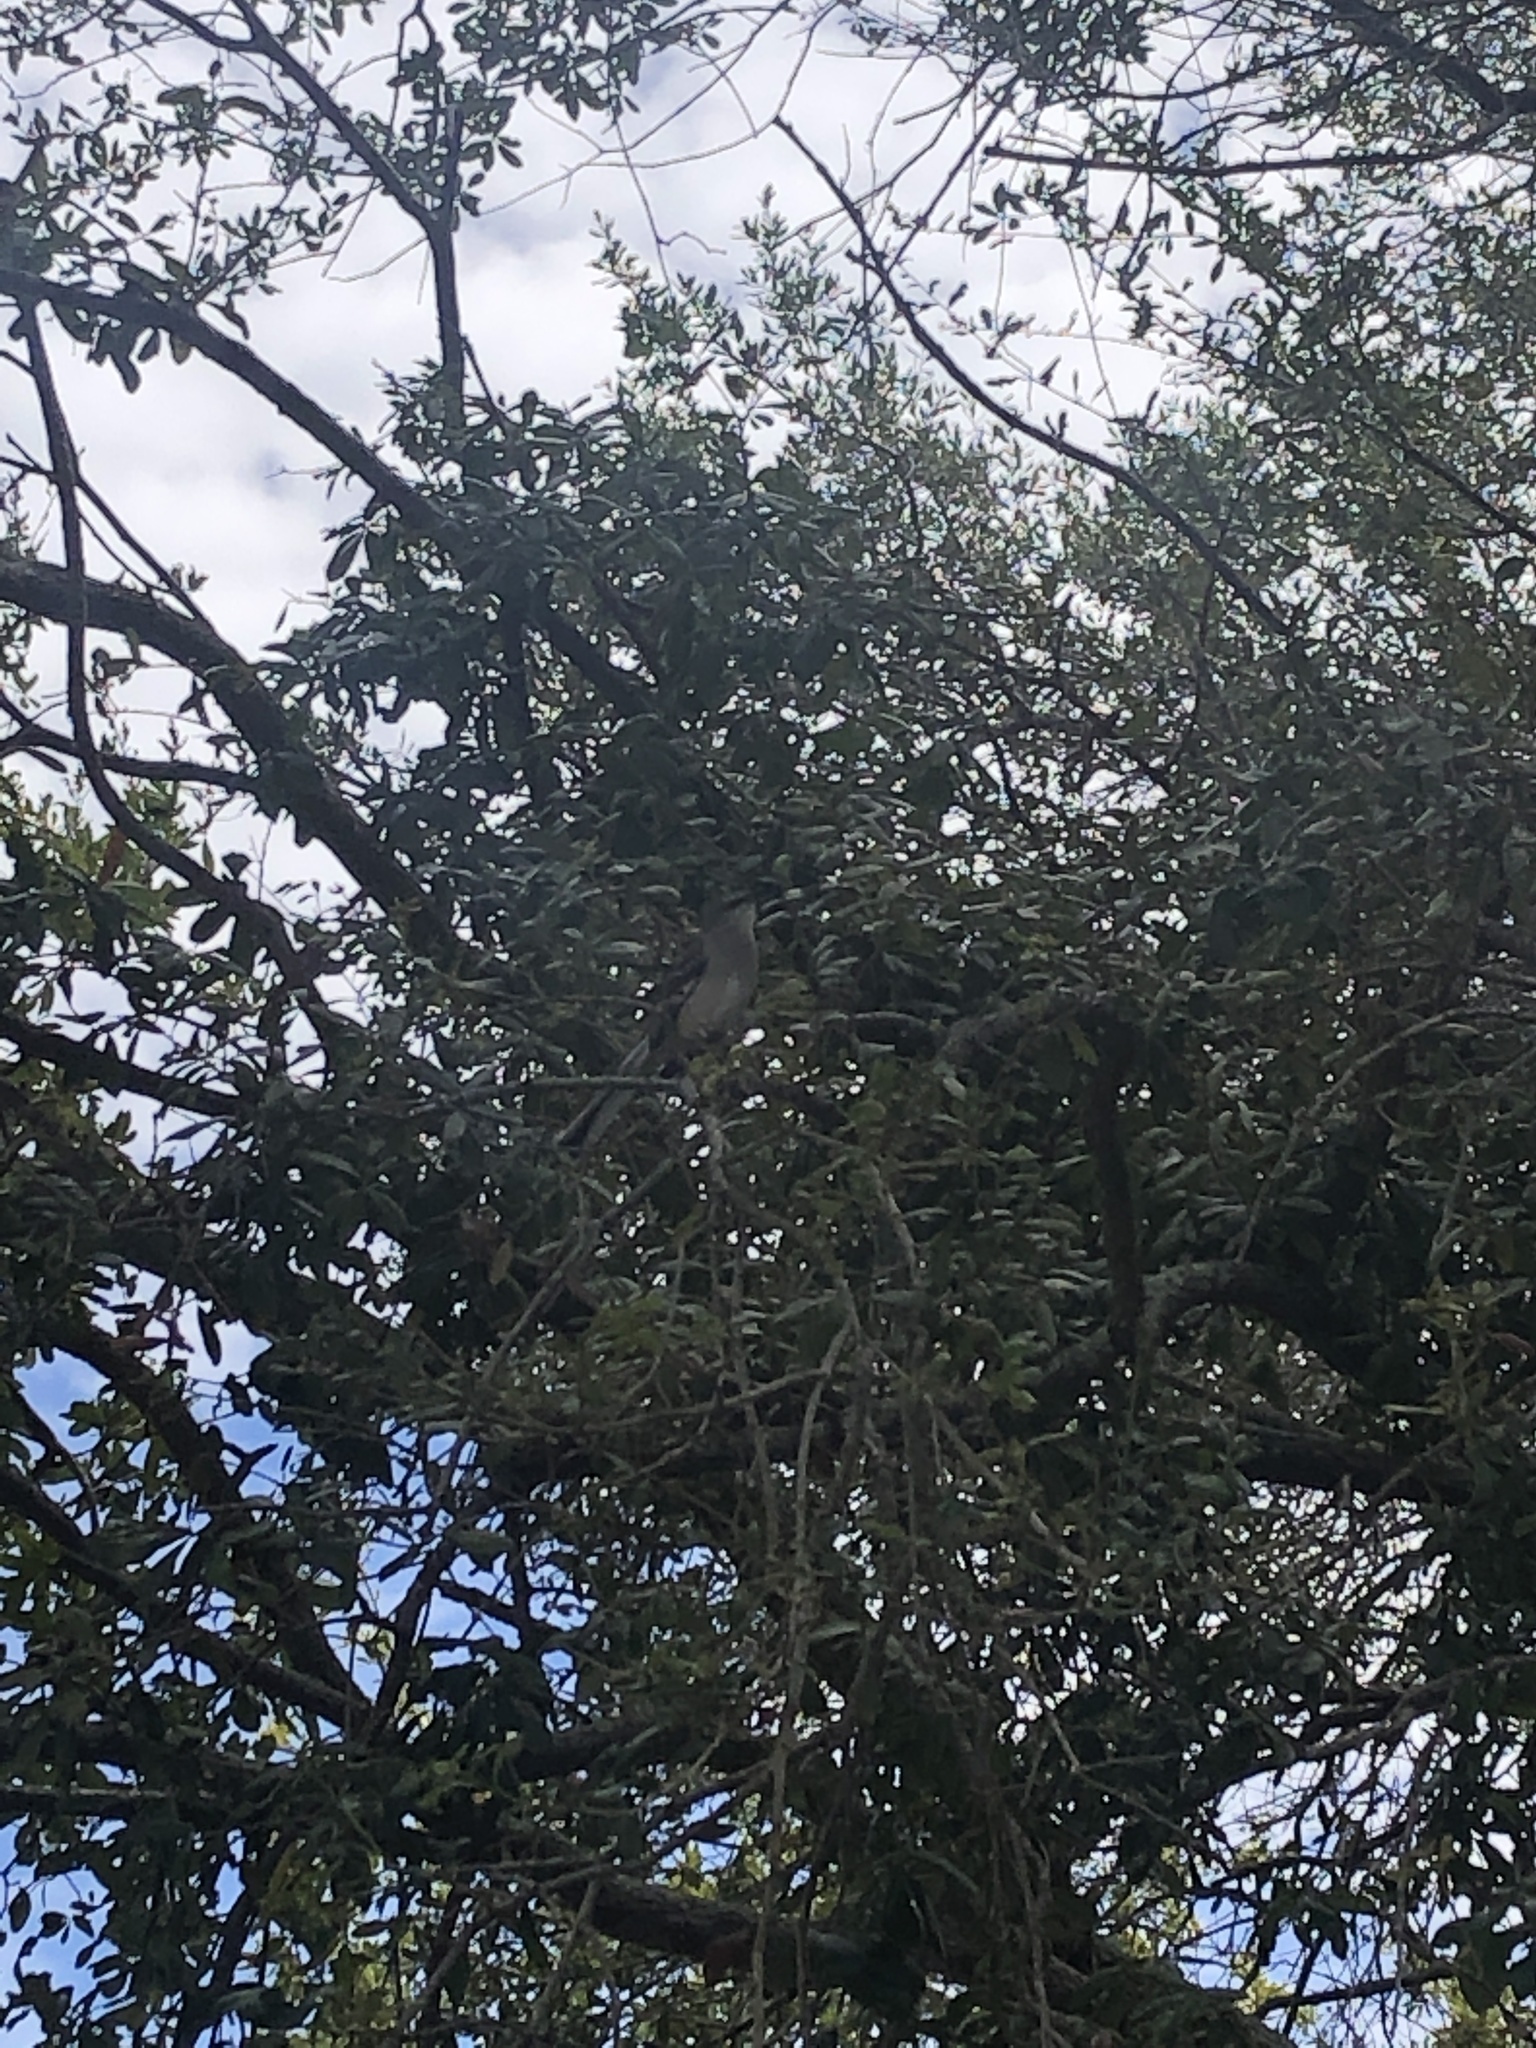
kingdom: Animalia
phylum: Chordata
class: Aves
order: Passeriformes
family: Mimidae
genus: Mimus
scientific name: Mimus polyglottos
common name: Northern mockingbird
